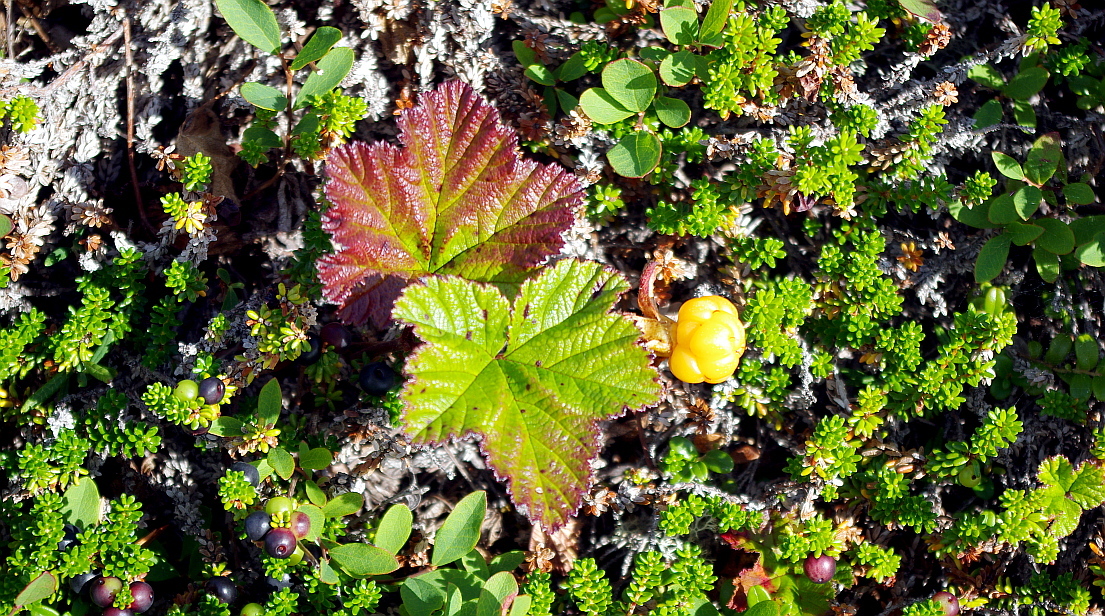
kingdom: Plantae
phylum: Tracheophyta
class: Magnoliopsida
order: Rosales
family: Rosaceae
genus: Rubus
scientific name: Rubus chamaemorus
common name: Cloudberry
